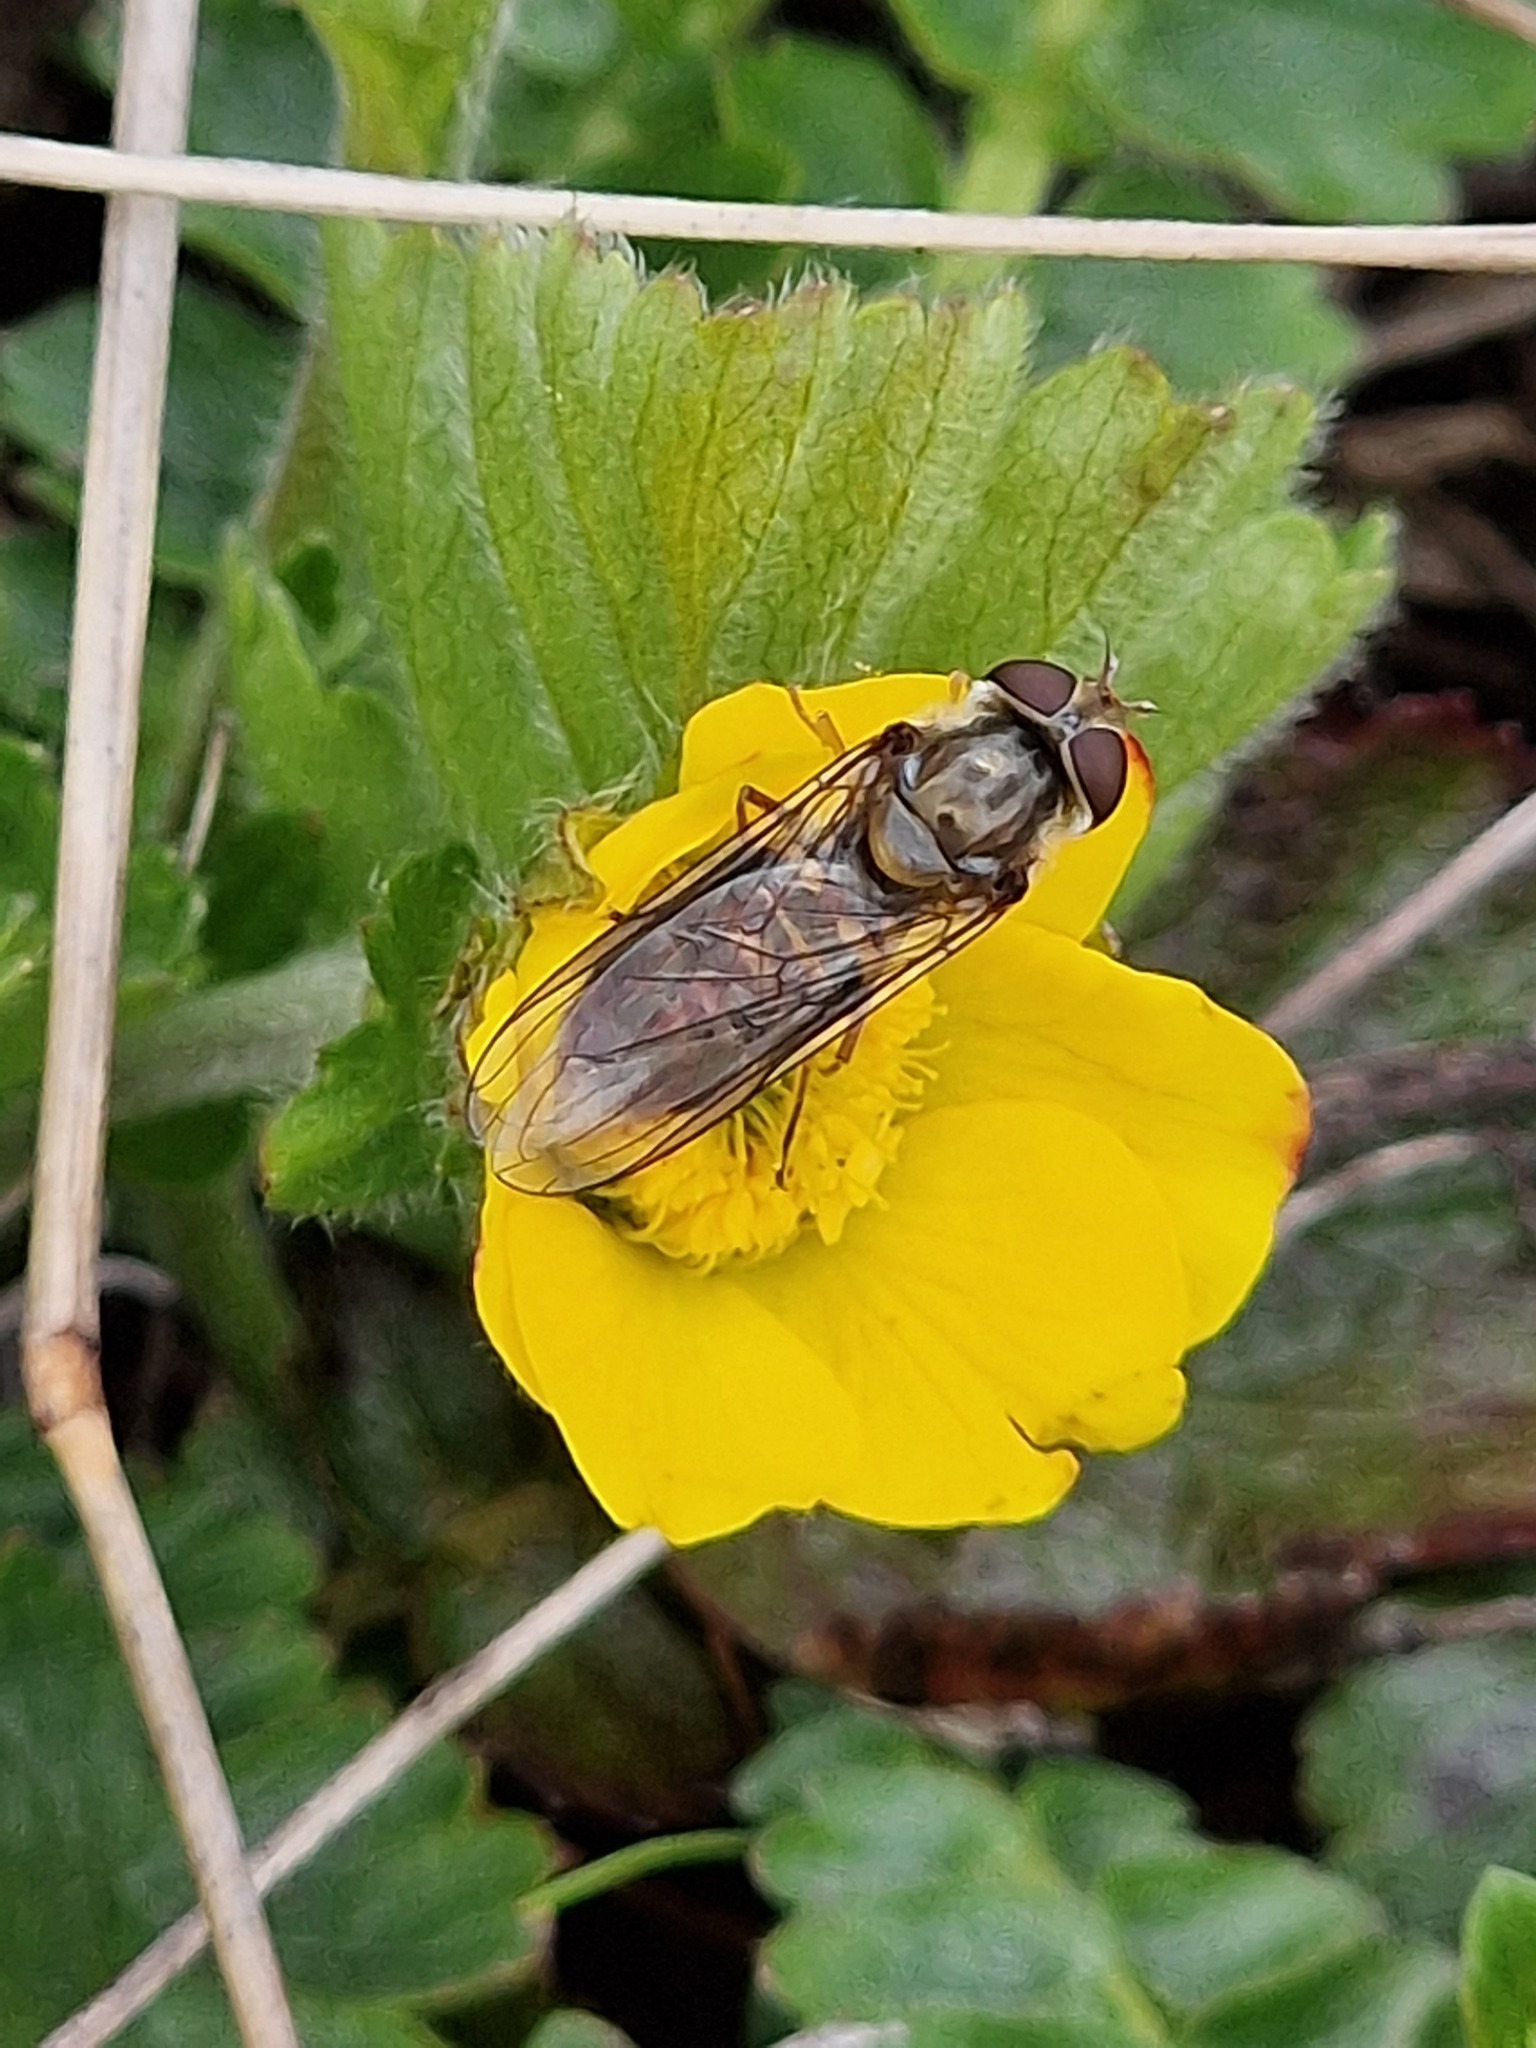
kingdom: Animalia
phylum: Arthropoda
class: Insecta
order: Diptera
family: Syrphidae
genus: Episyrphus
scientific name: Episyrphus balteatus
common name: Marmalade hoverfly
